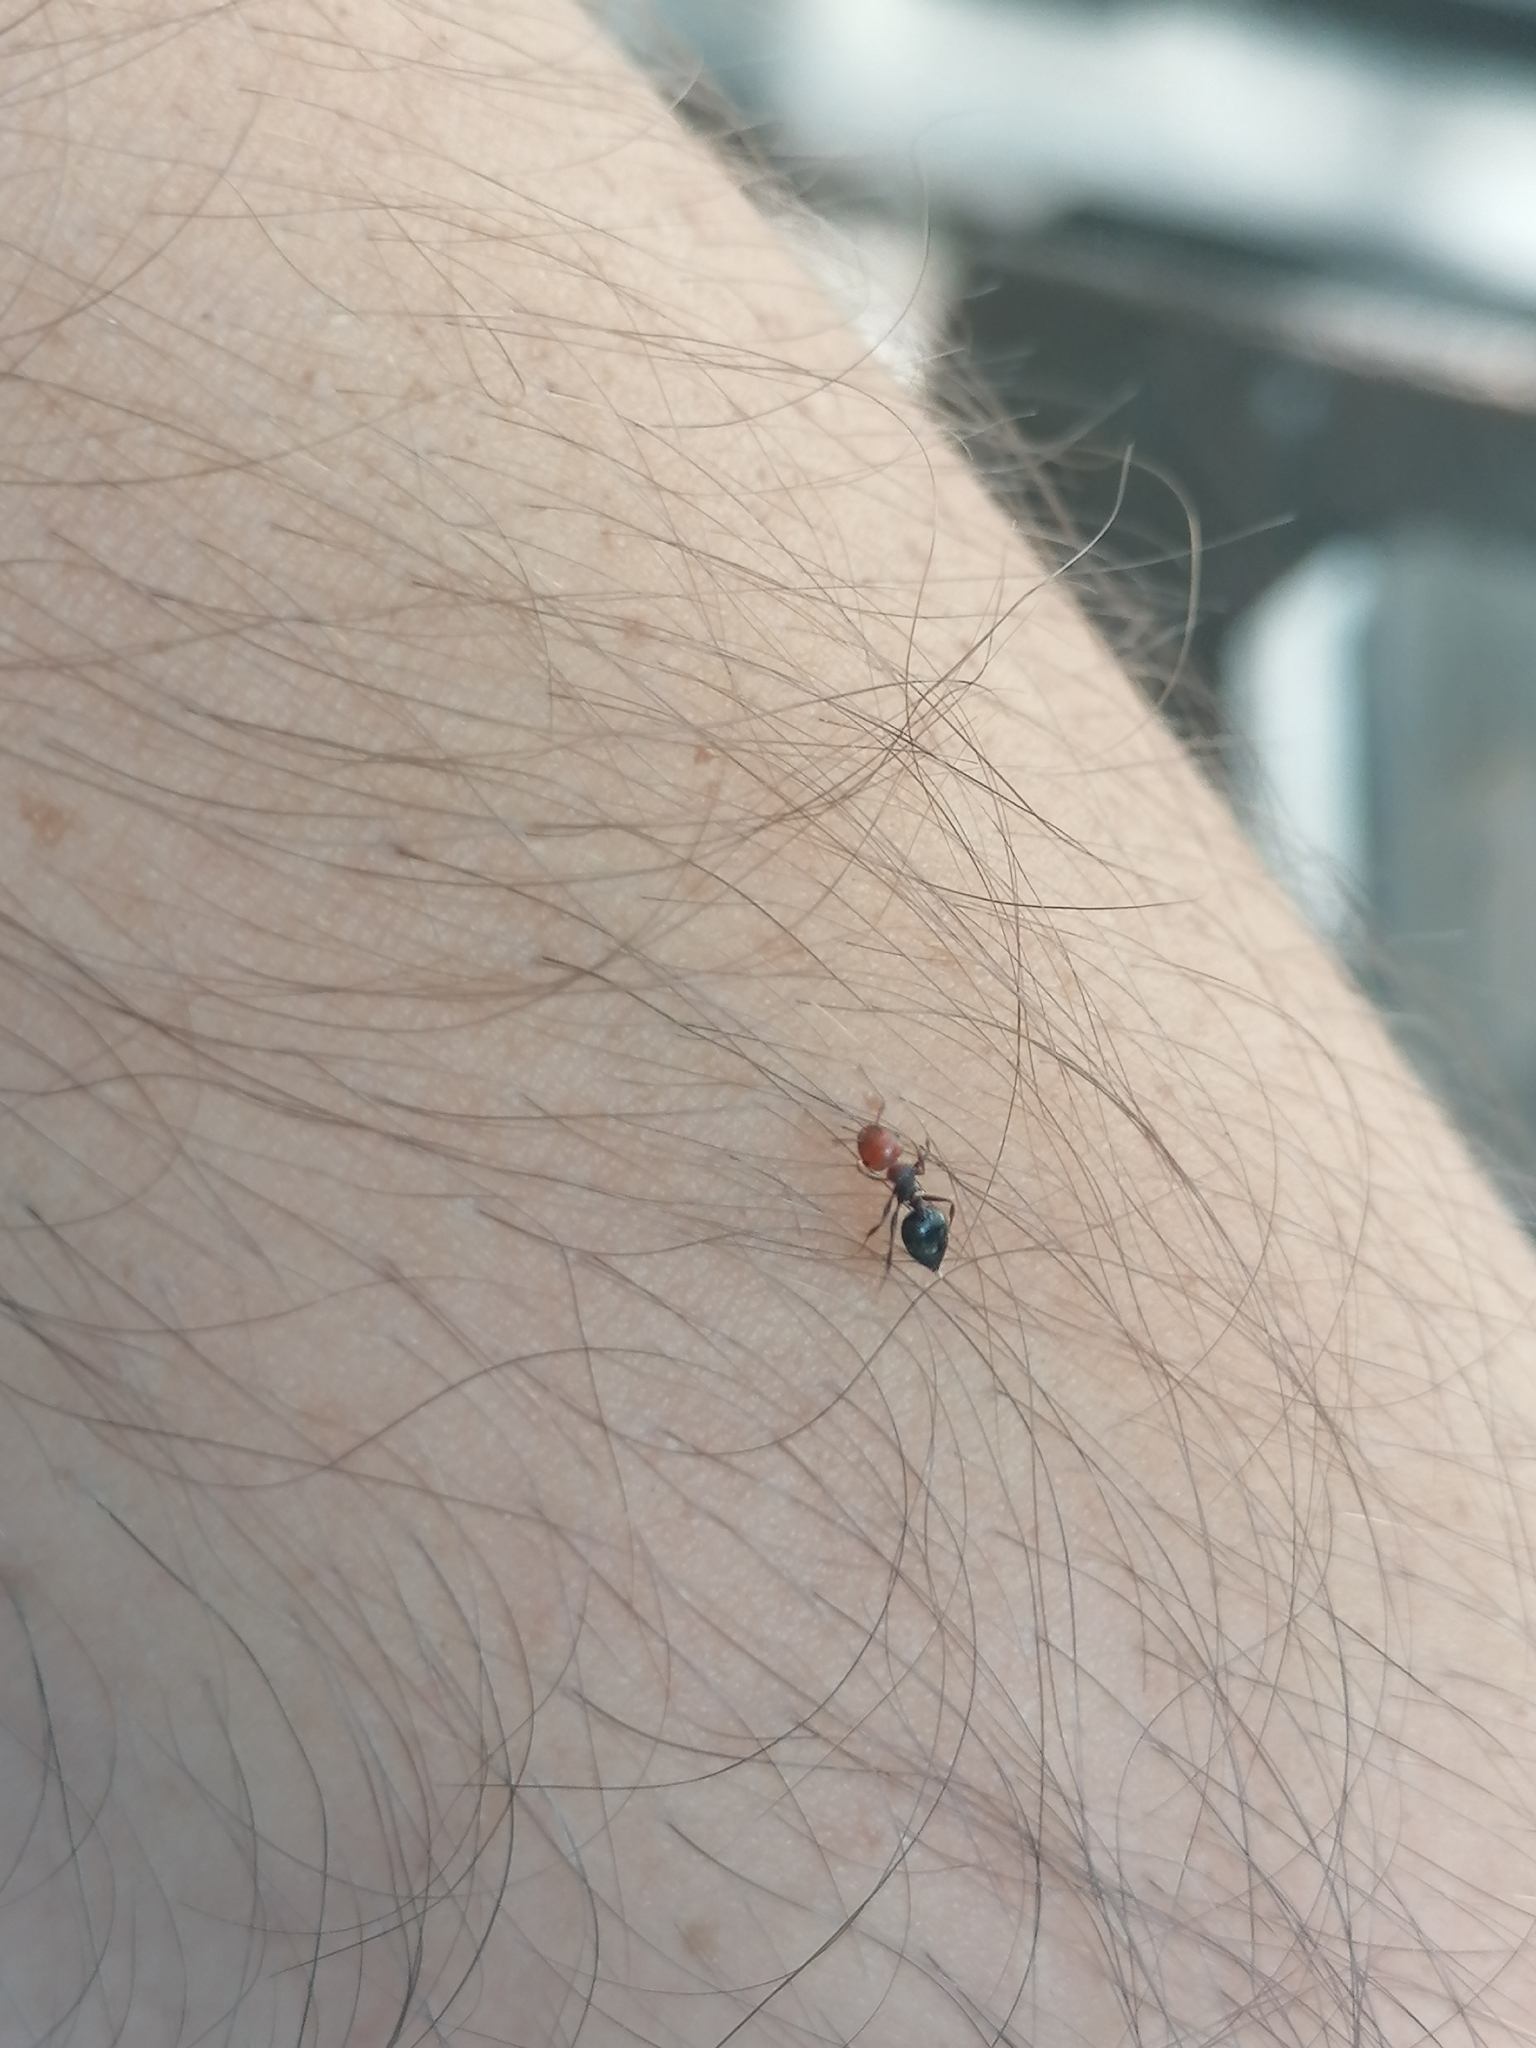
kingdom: Animalia
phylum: Arthropoda
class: Insecta
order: Hymenoptera
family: Formicidae
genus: Crematogaster
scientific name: Crematogaster scutellaris
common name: Fourmi du liège
